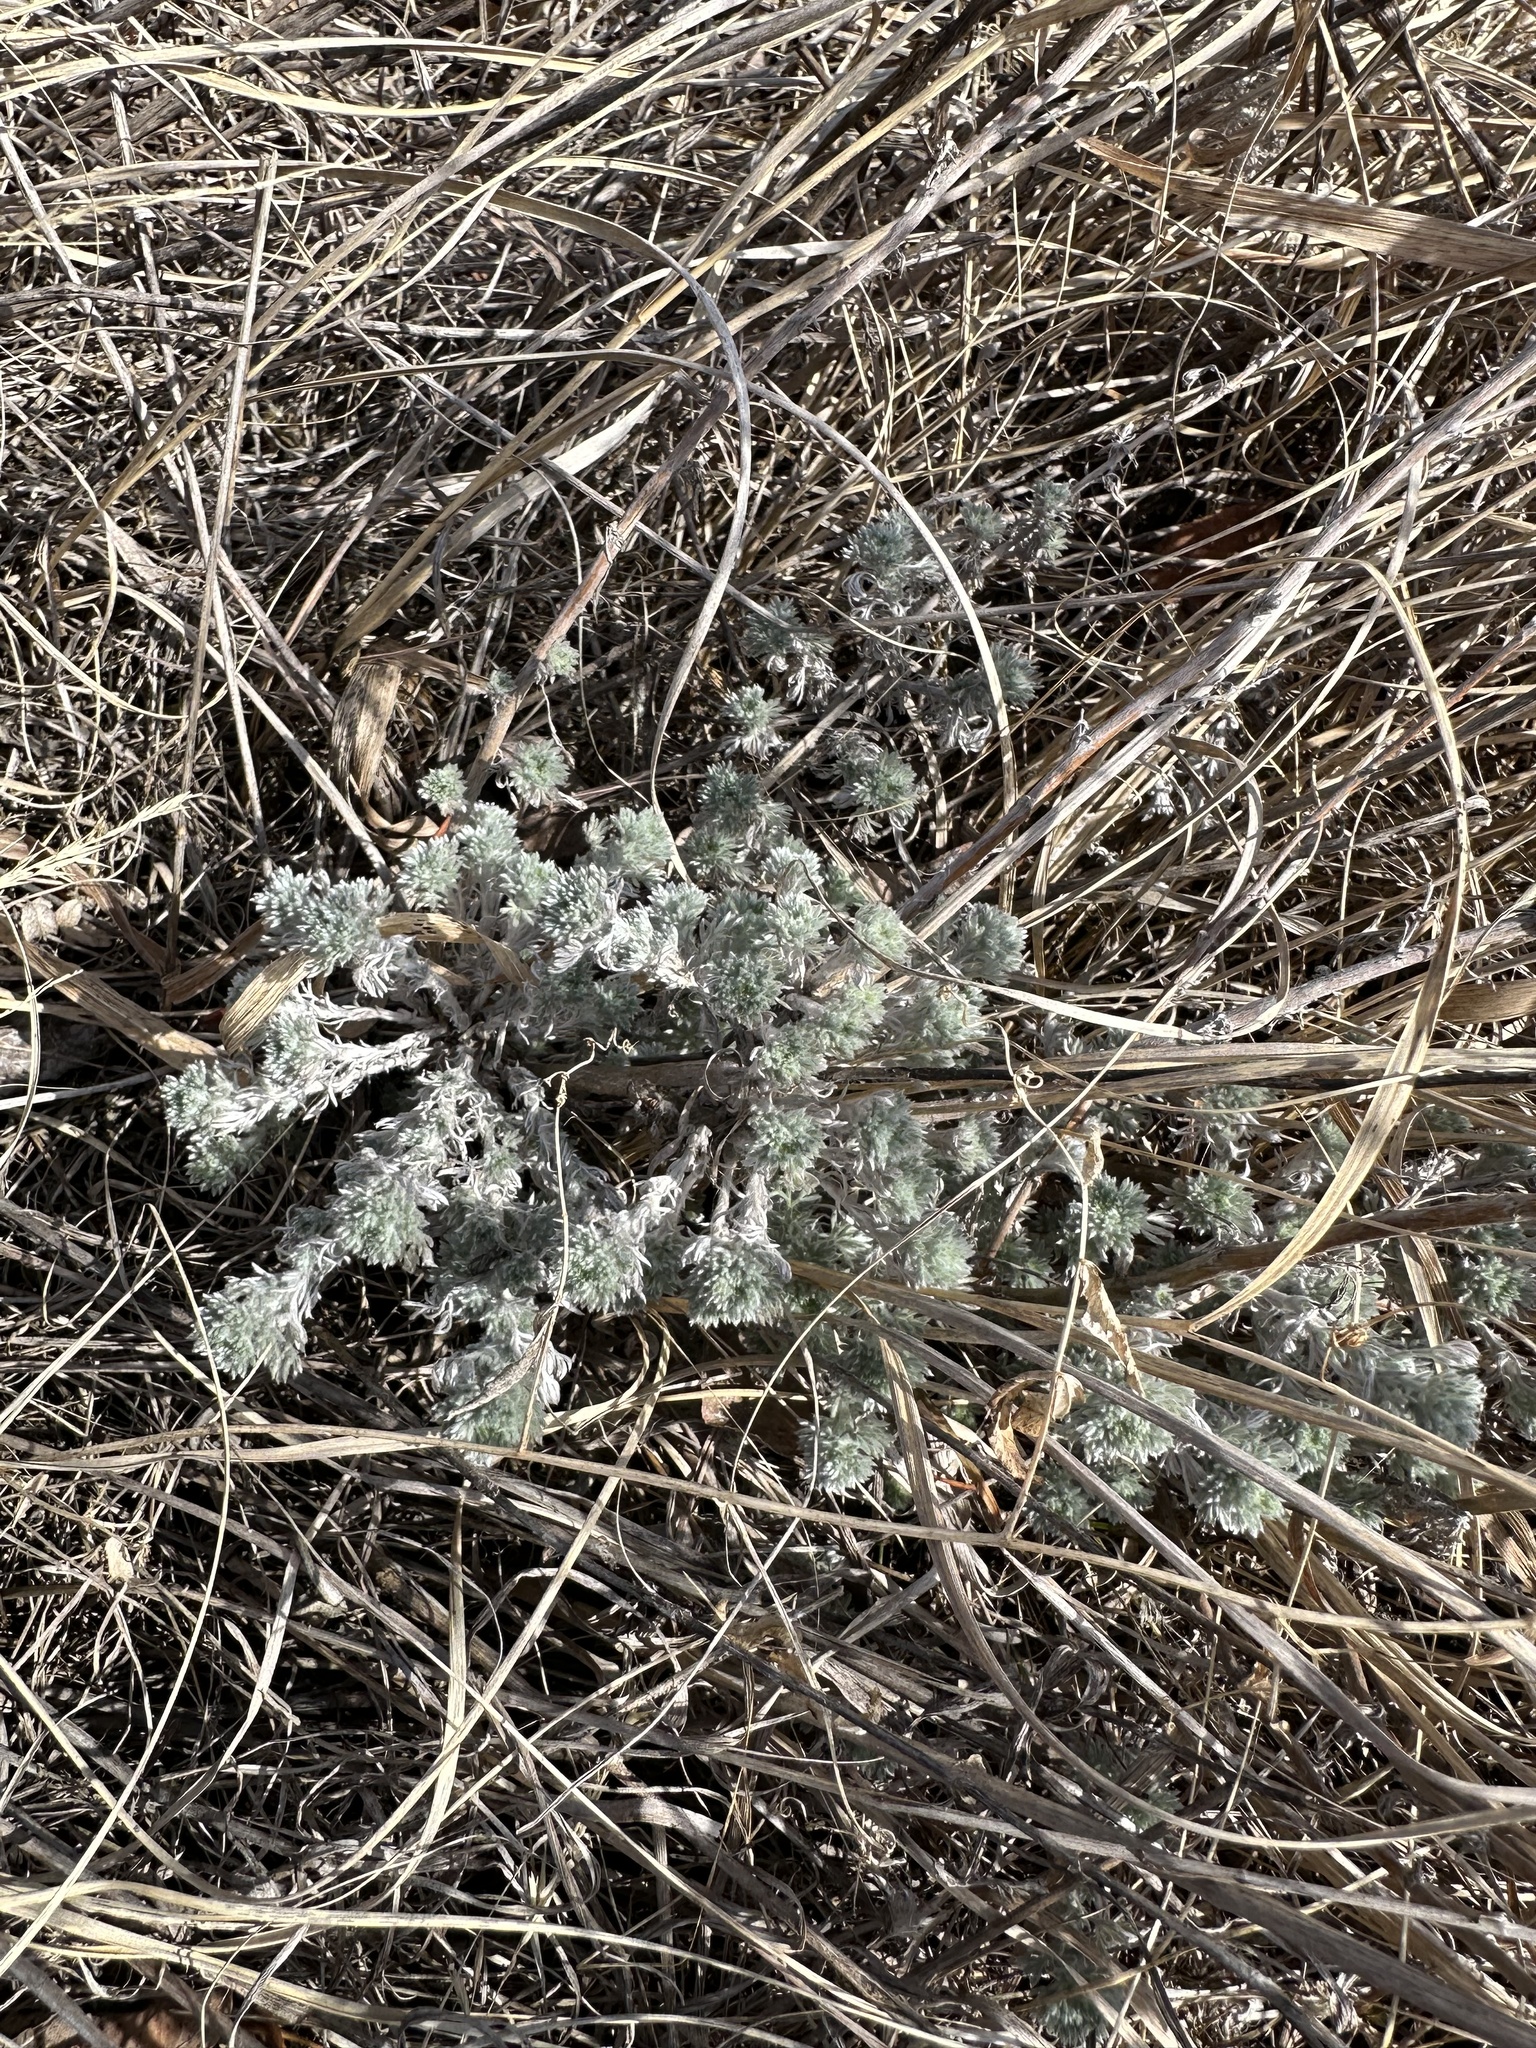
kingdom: Plantae
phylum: Tracheophyta
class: Magnoliopsida
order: Asterales
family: Asteraceae
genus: Artemisia
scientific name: Artemisia frigida
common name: Prairie sagewort
